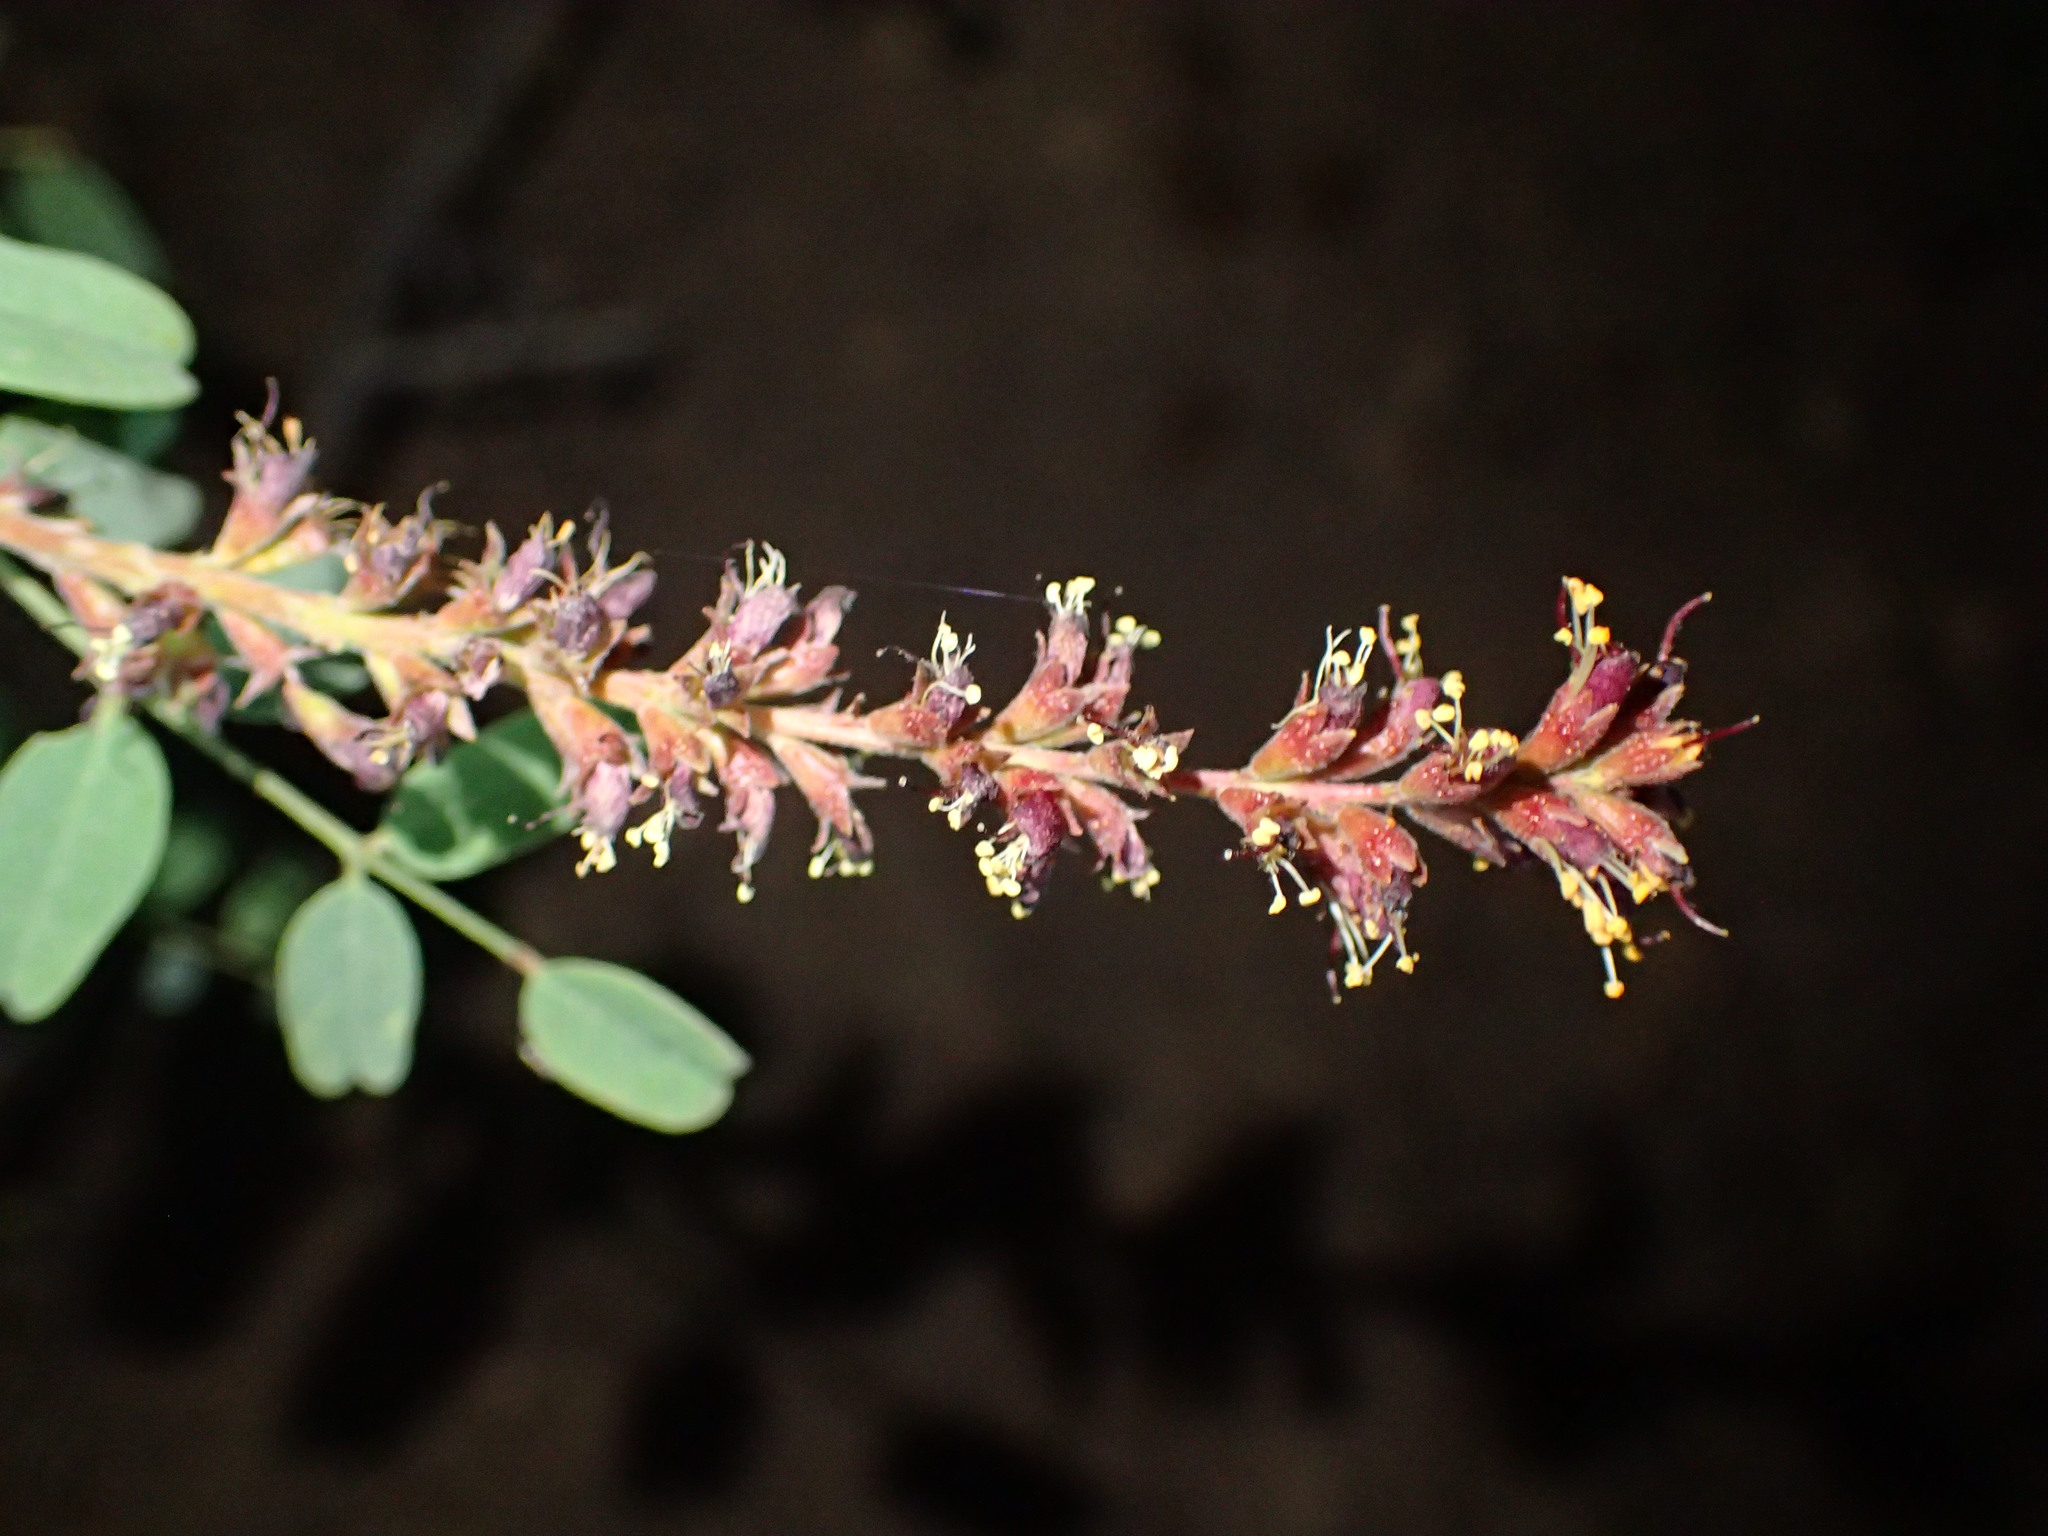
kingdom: Plantae
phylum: Tracheophyta
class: Magnoliopsida
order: Fabales
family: Fabaceae
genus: Amorpha
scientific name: Amorpha californica
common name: California indigobush
